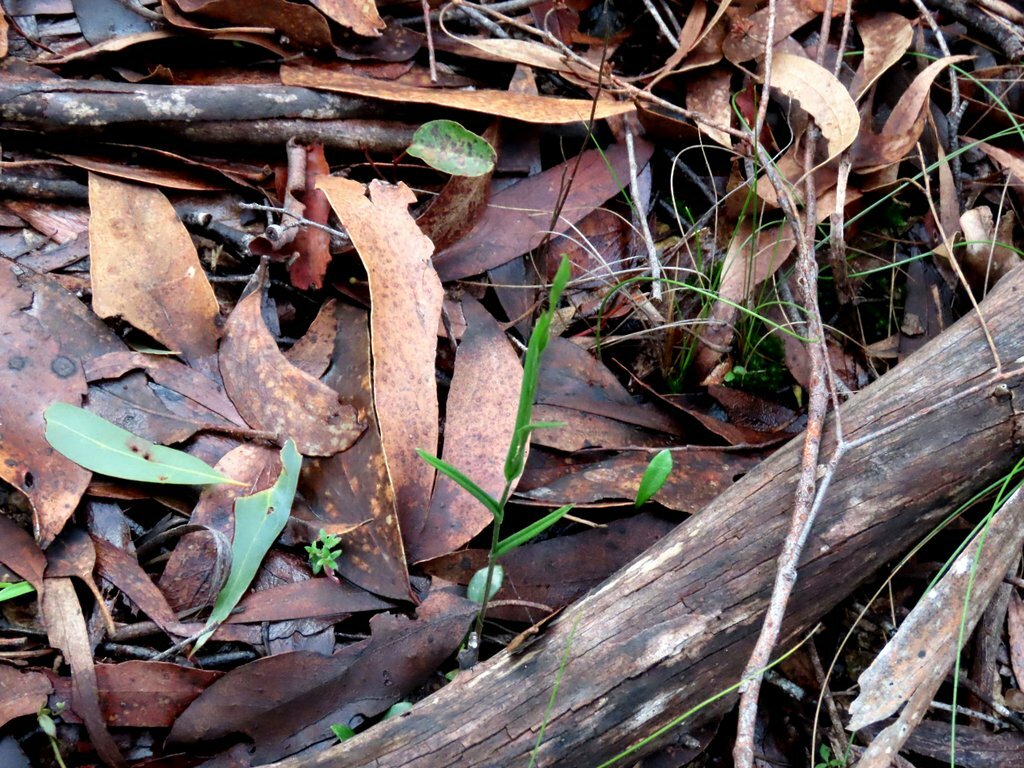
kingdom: Plantae
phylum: Tracheophyta
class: Liliopsida
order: Asparagales
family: Orchidaceae
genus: Pterostylis
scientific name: Pterostylis melagramma
